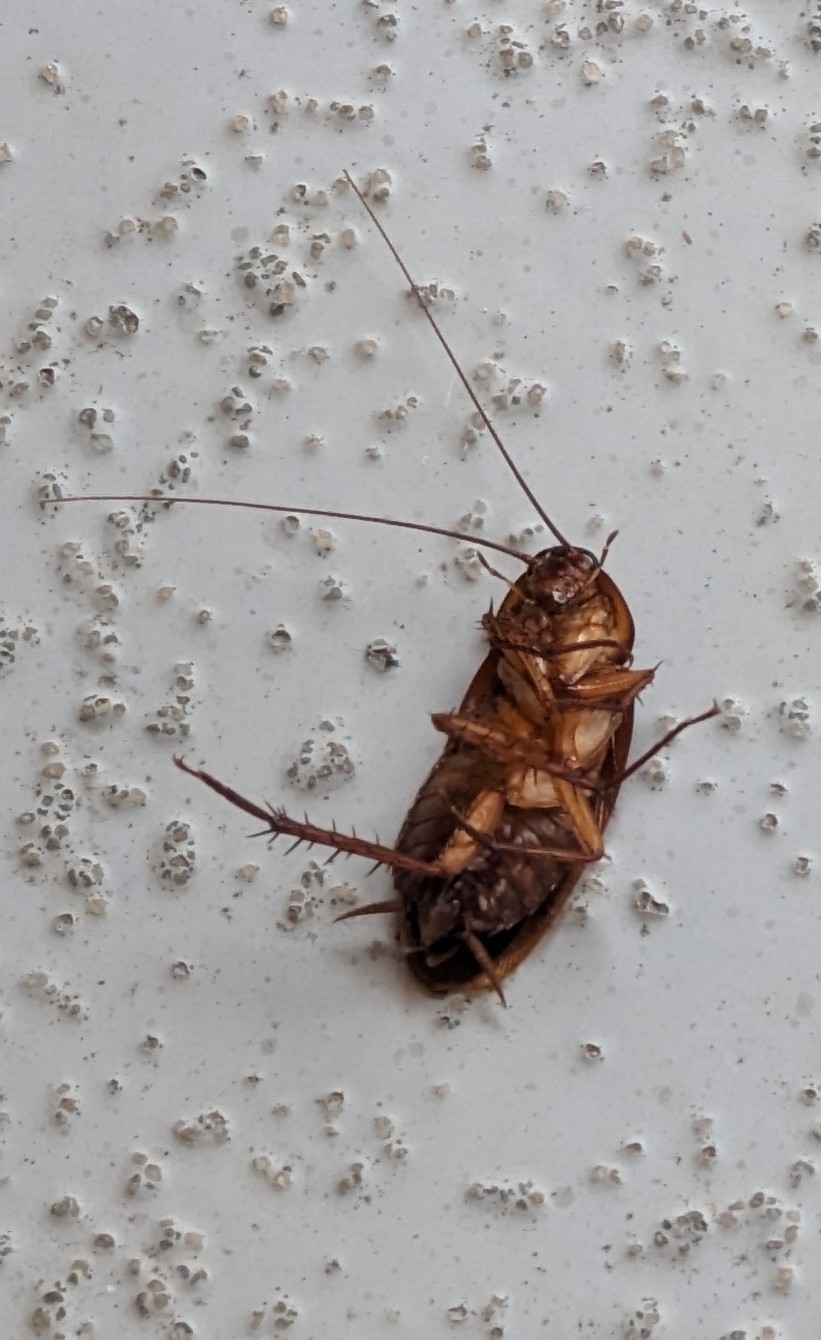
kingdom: Animalia
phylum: Arthropoda
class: Insecta
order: Blattodea
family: Blattidae
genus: Periplaneta
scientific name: Periplaneta americana
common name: American cockroach
